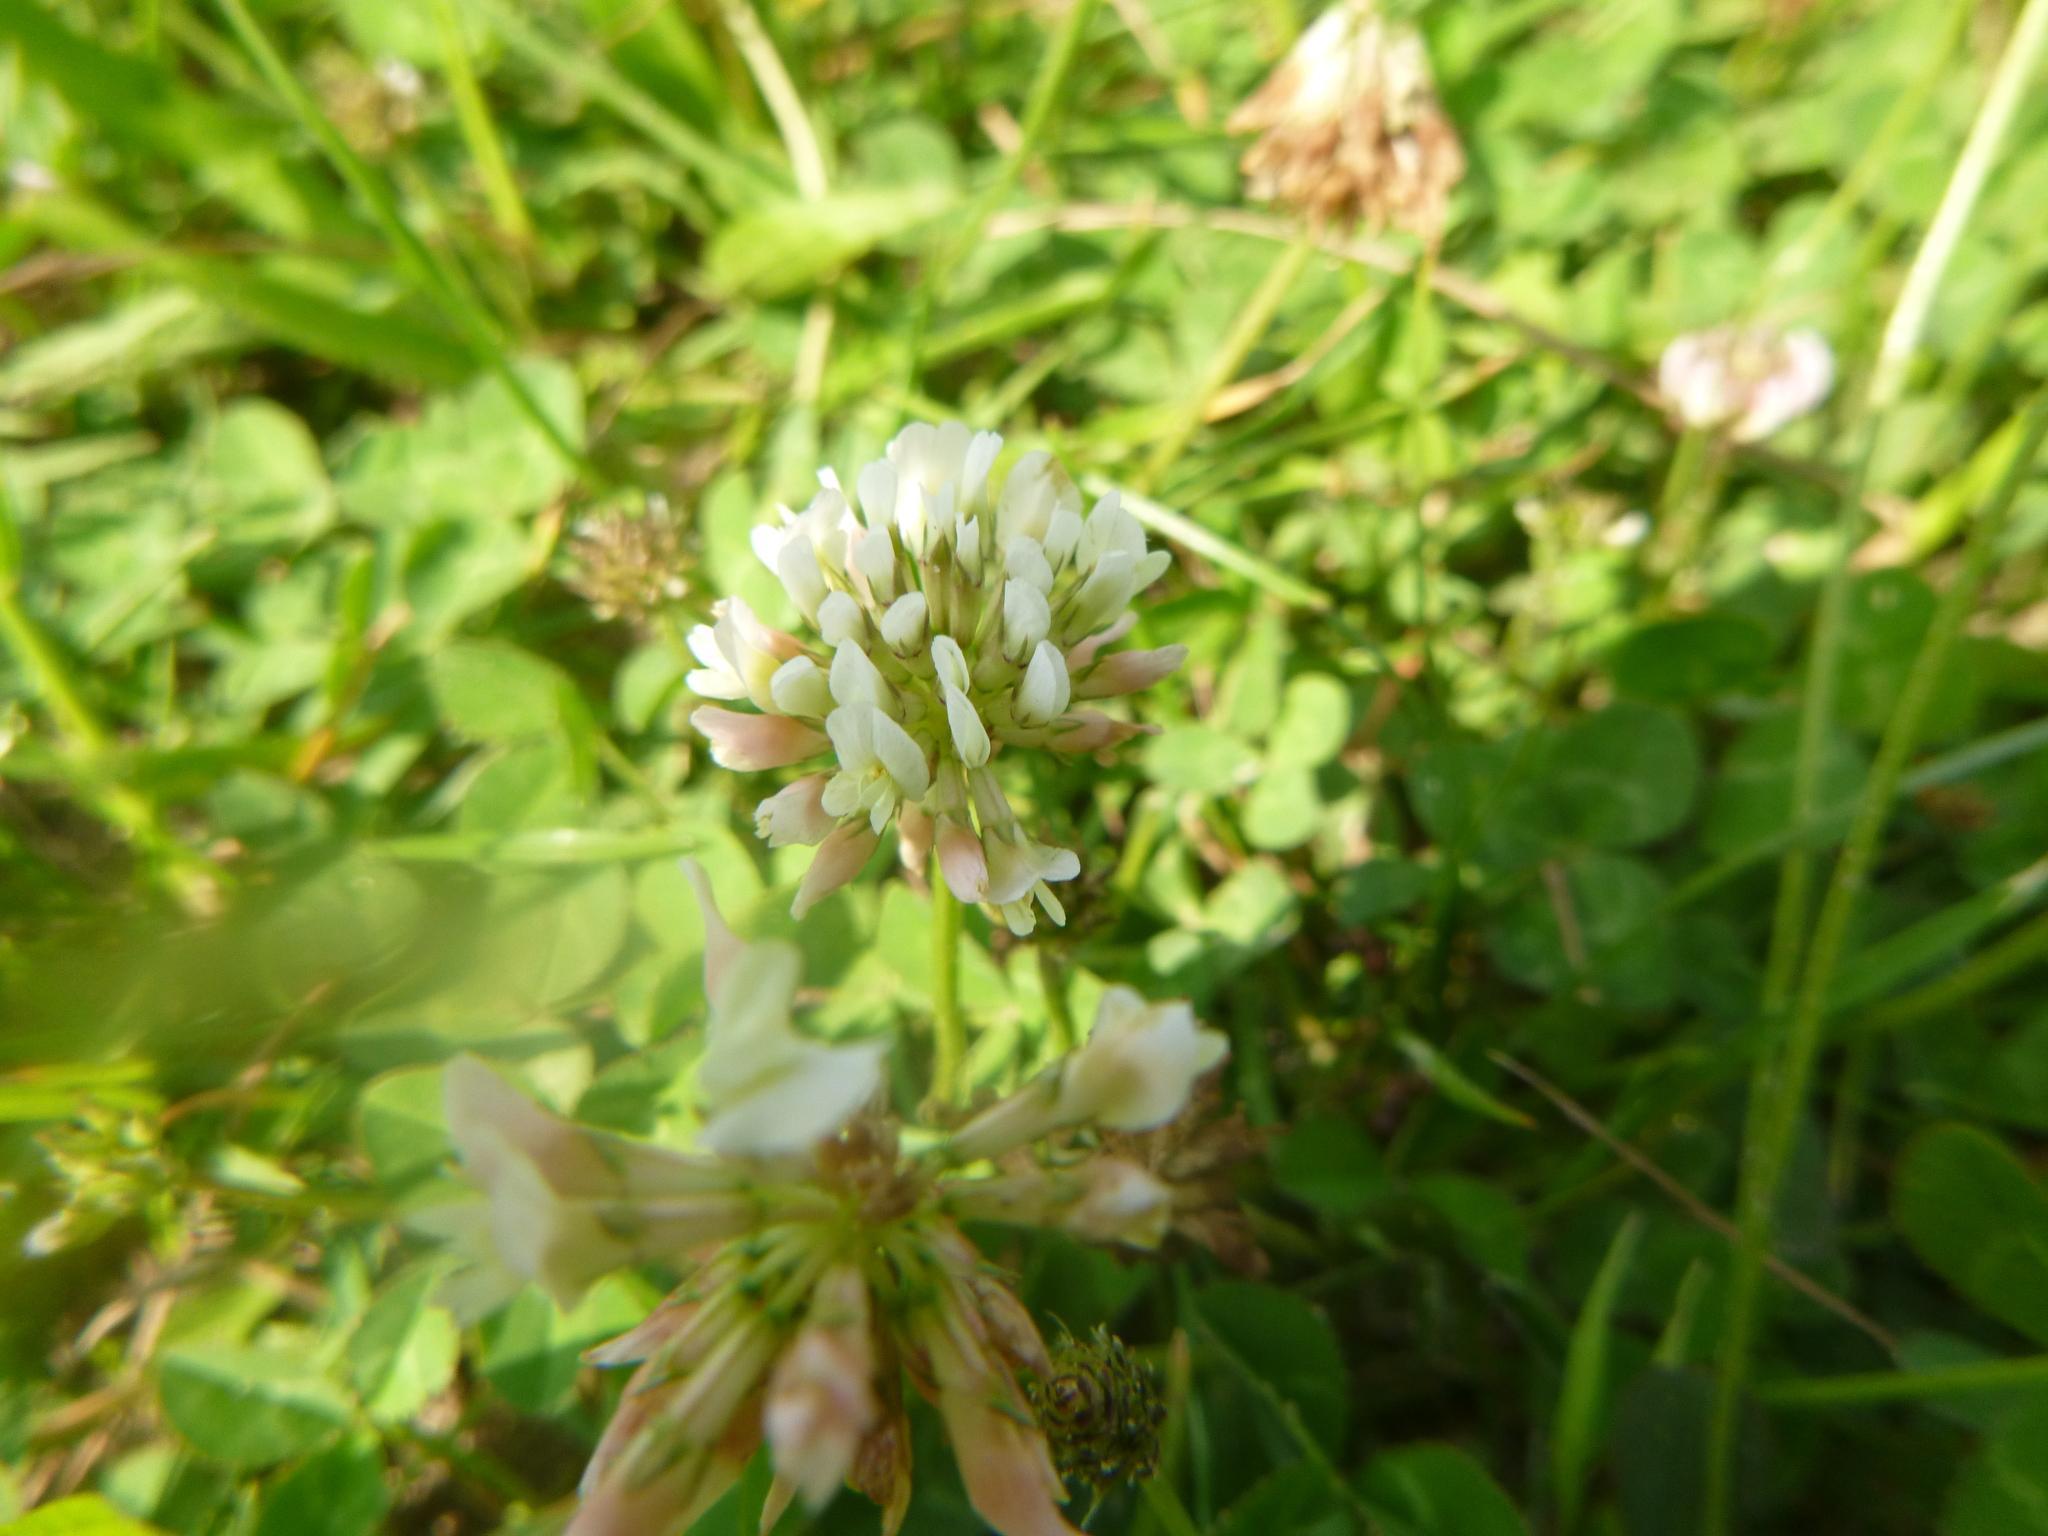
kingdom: Plantae
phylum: Tracheophyta
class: Magnoliopsida
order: Fabales
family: Fabaceae
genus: Trifolium
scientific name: Trifolium repens
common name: White clover
